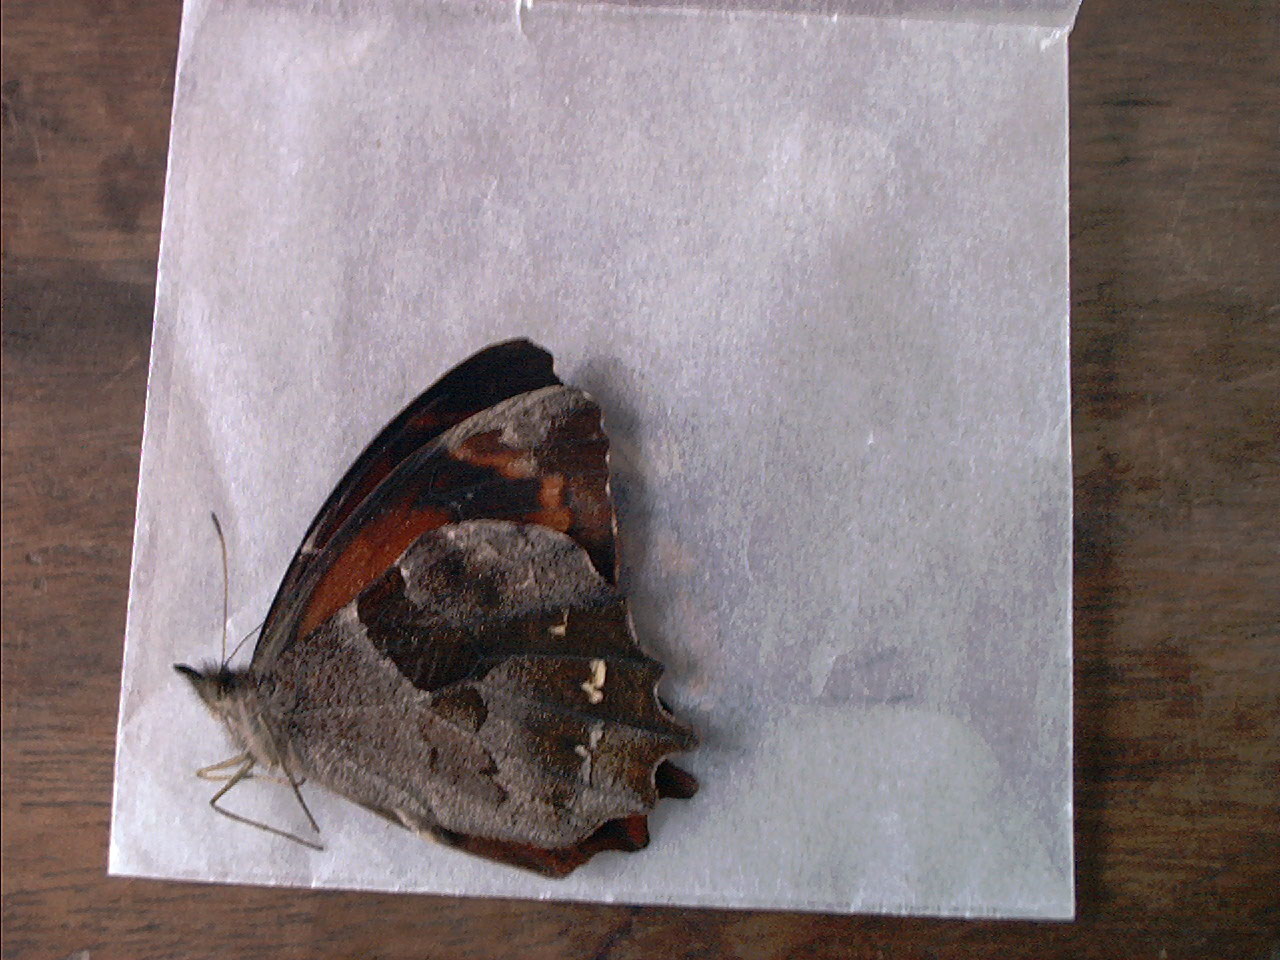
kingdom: Animalia
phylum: Arthropoda
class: Insecta
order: Lepidoptera
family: Nymphalidae
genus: Lasiophila
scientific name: Lasiophila orbifera
